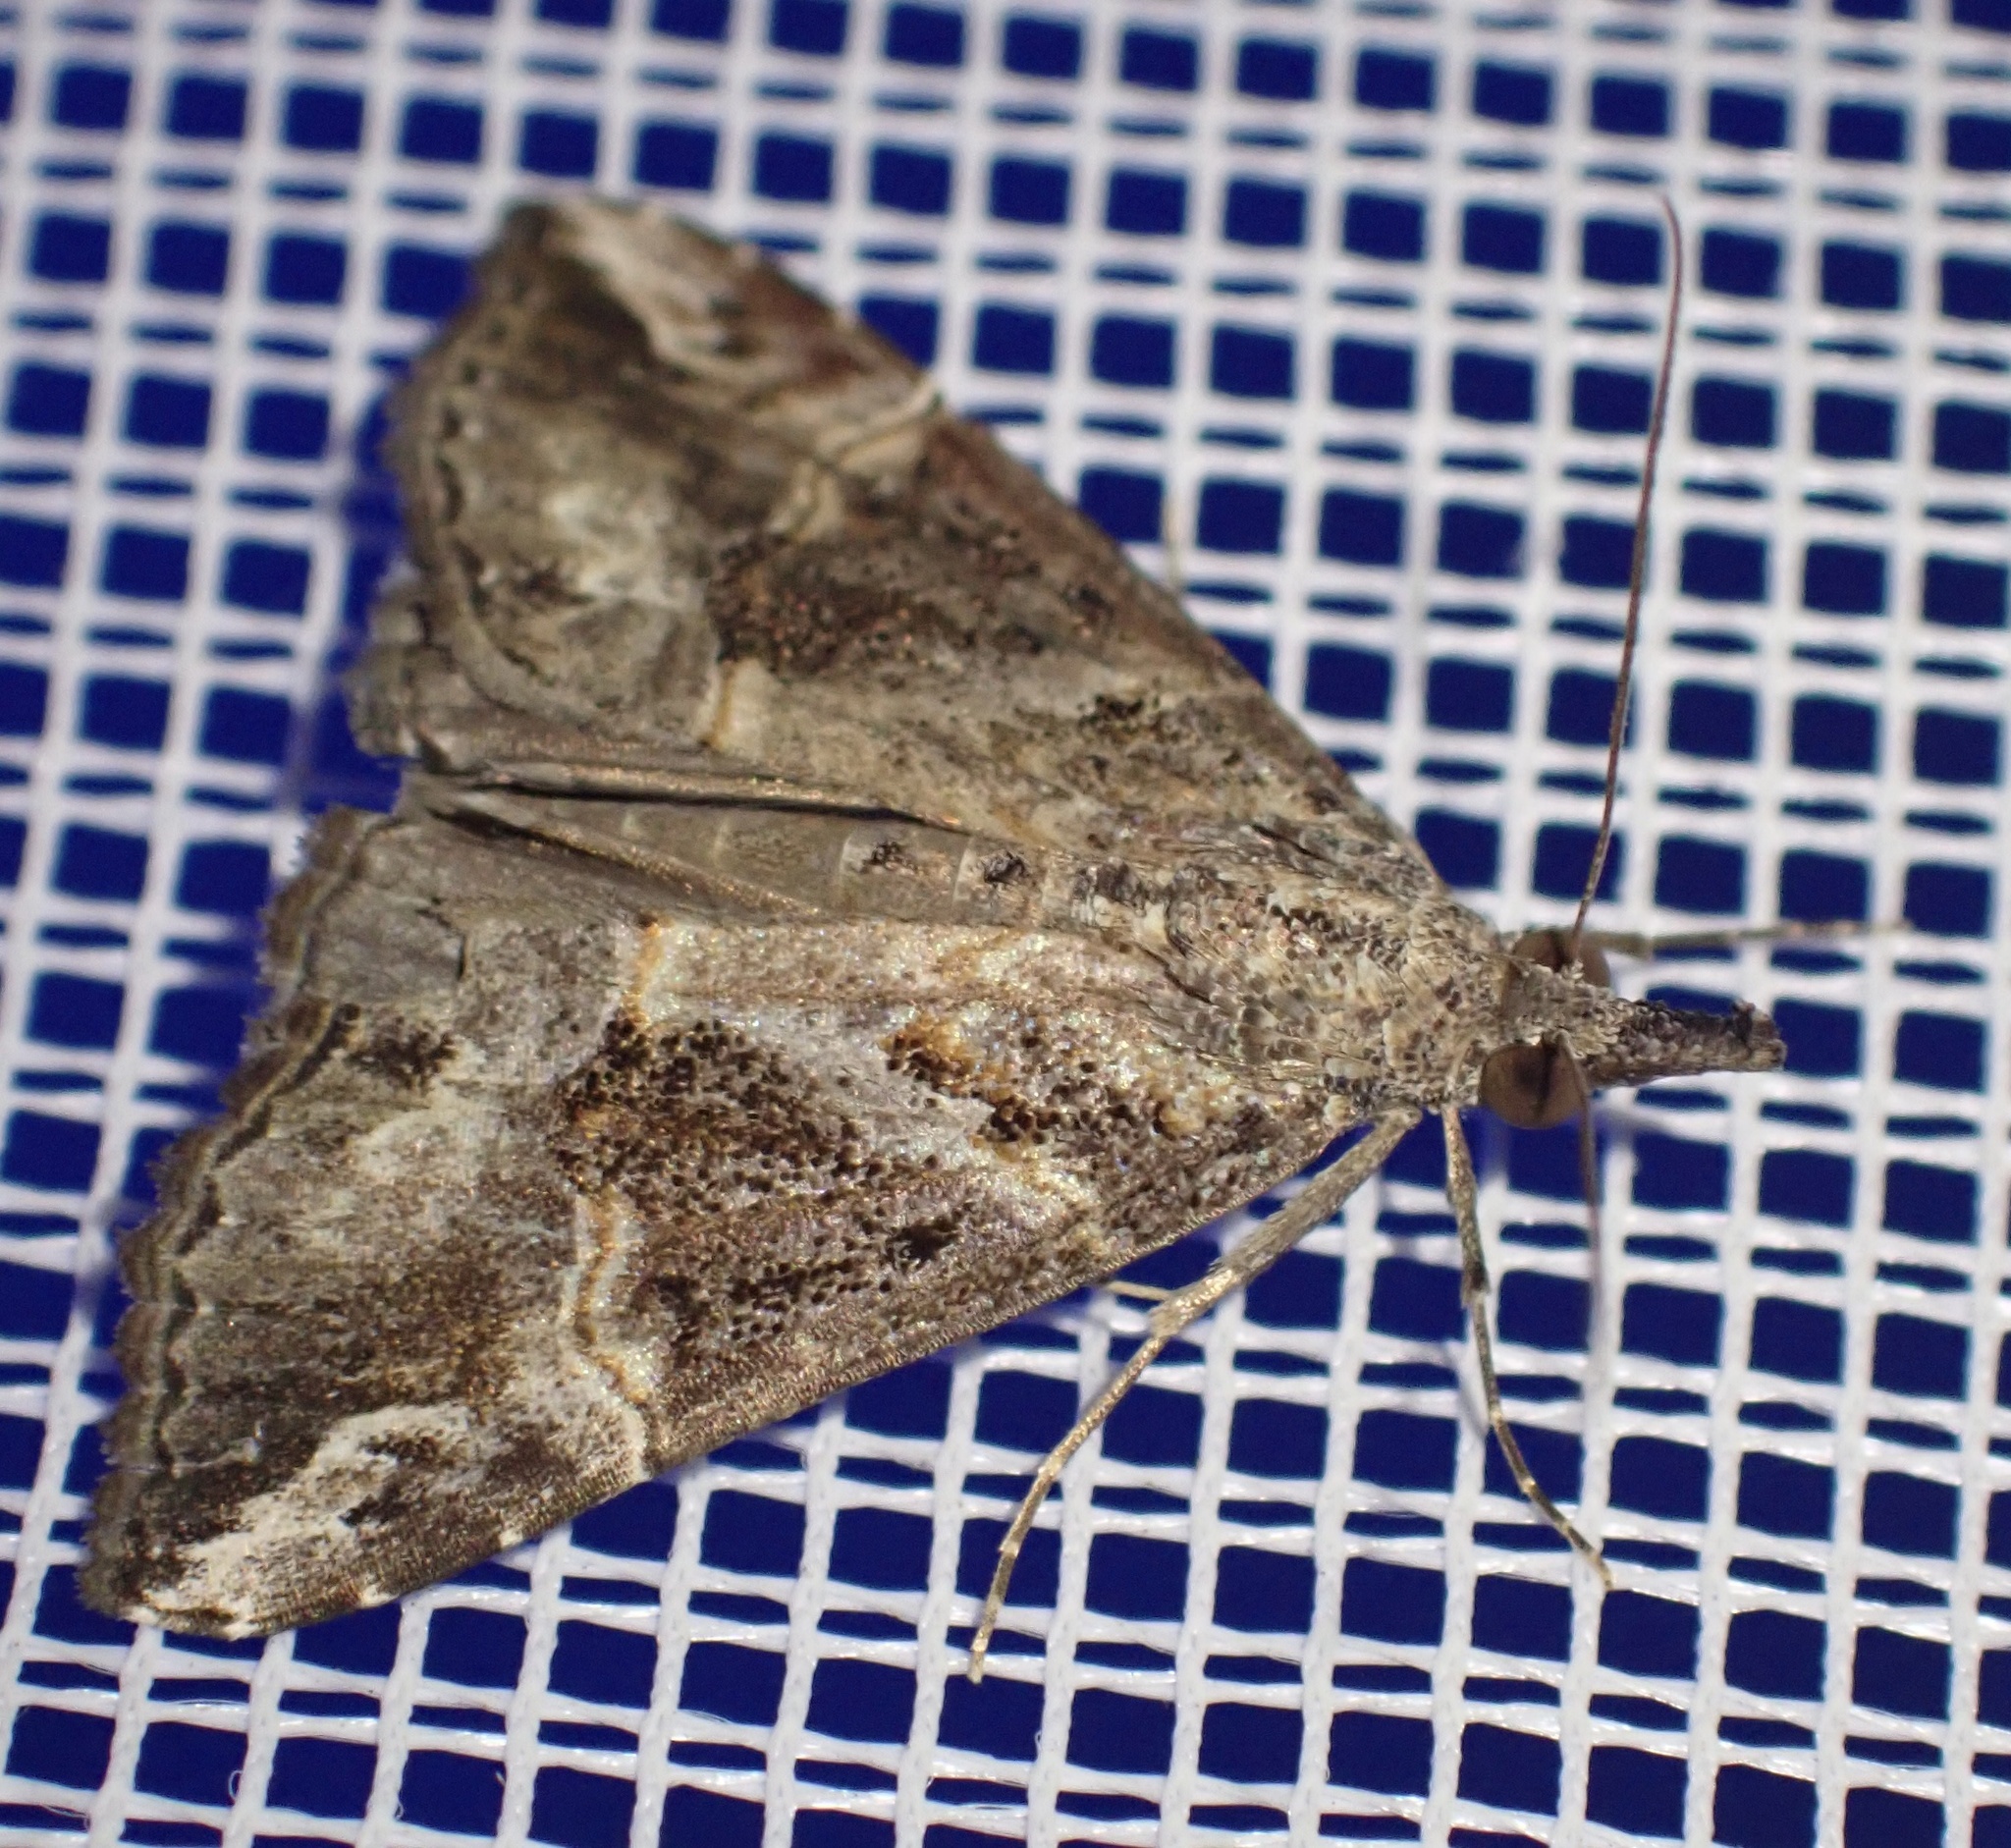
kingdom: Animalia
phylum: Arthropoda
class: Insecta
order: Lepidoptera
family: Erebidae
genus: Hypena
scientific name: Hypena commixtalis
